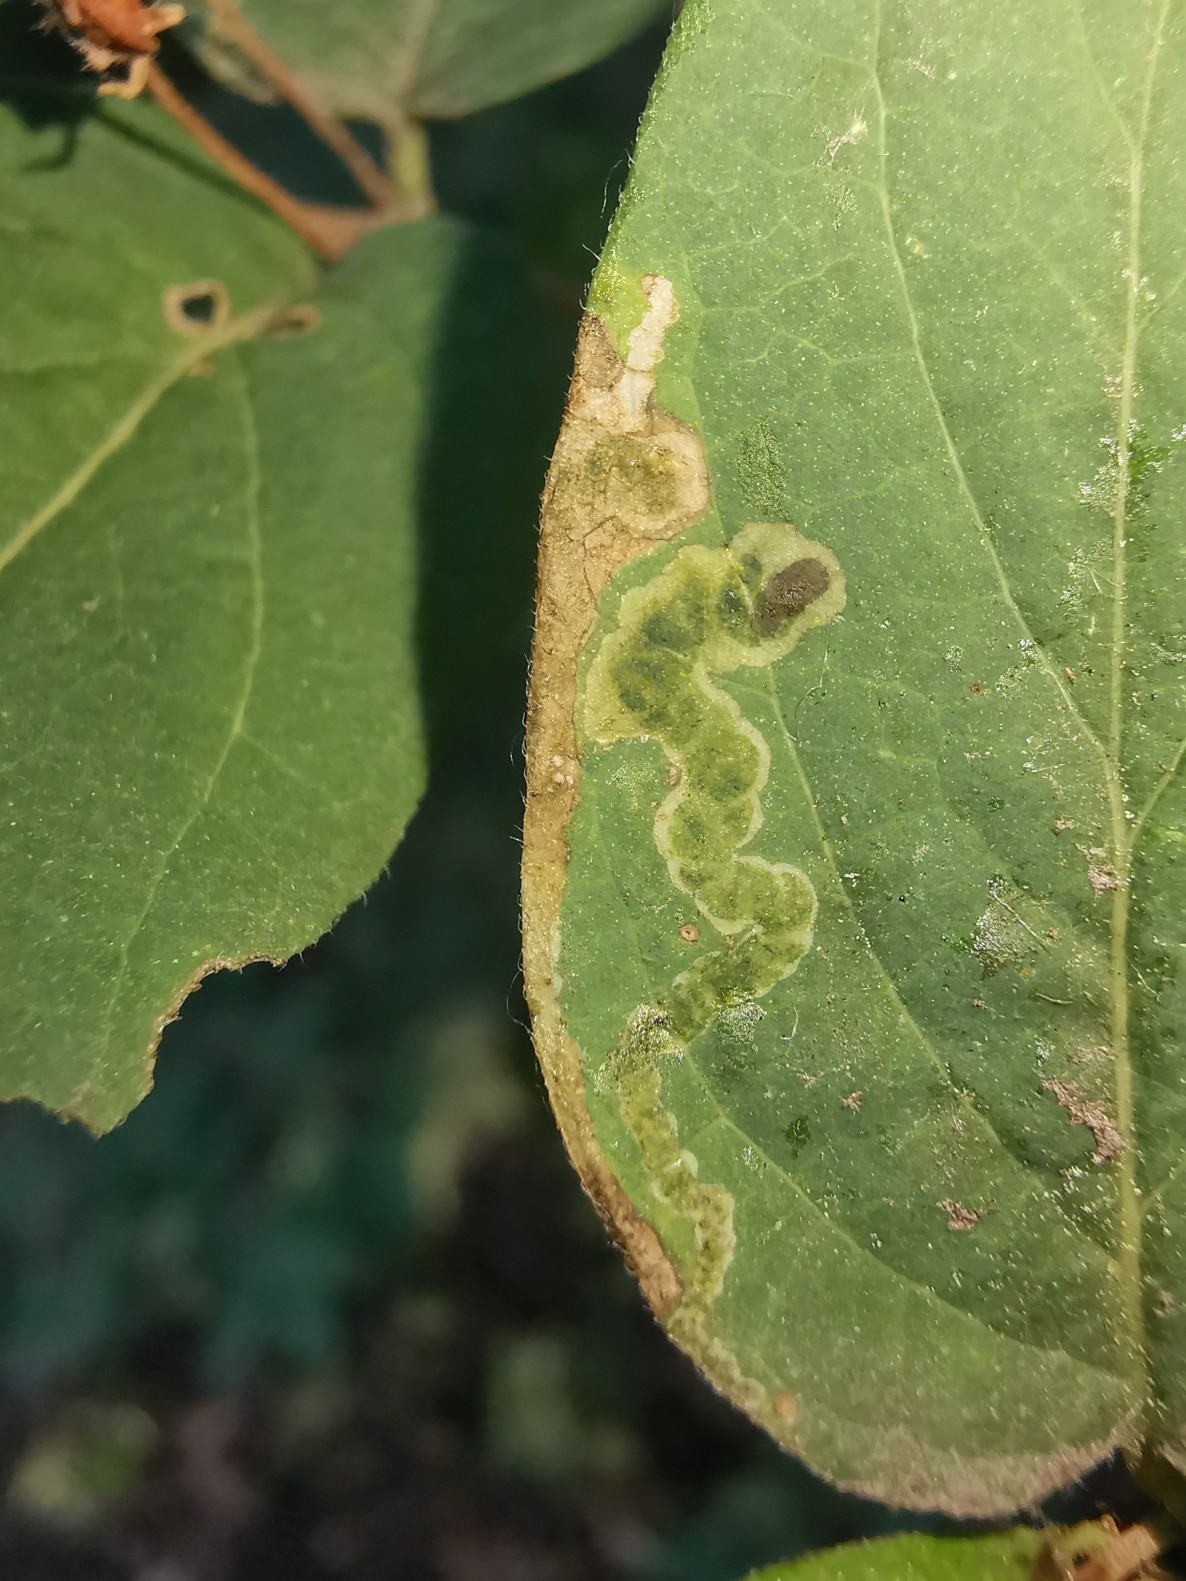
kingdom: Animalia
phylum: Arthropoda
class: Insecta
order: Diptera
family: Agromyzidae
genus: Aulagromyza
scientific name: Aulagromyza luteoscutellata
